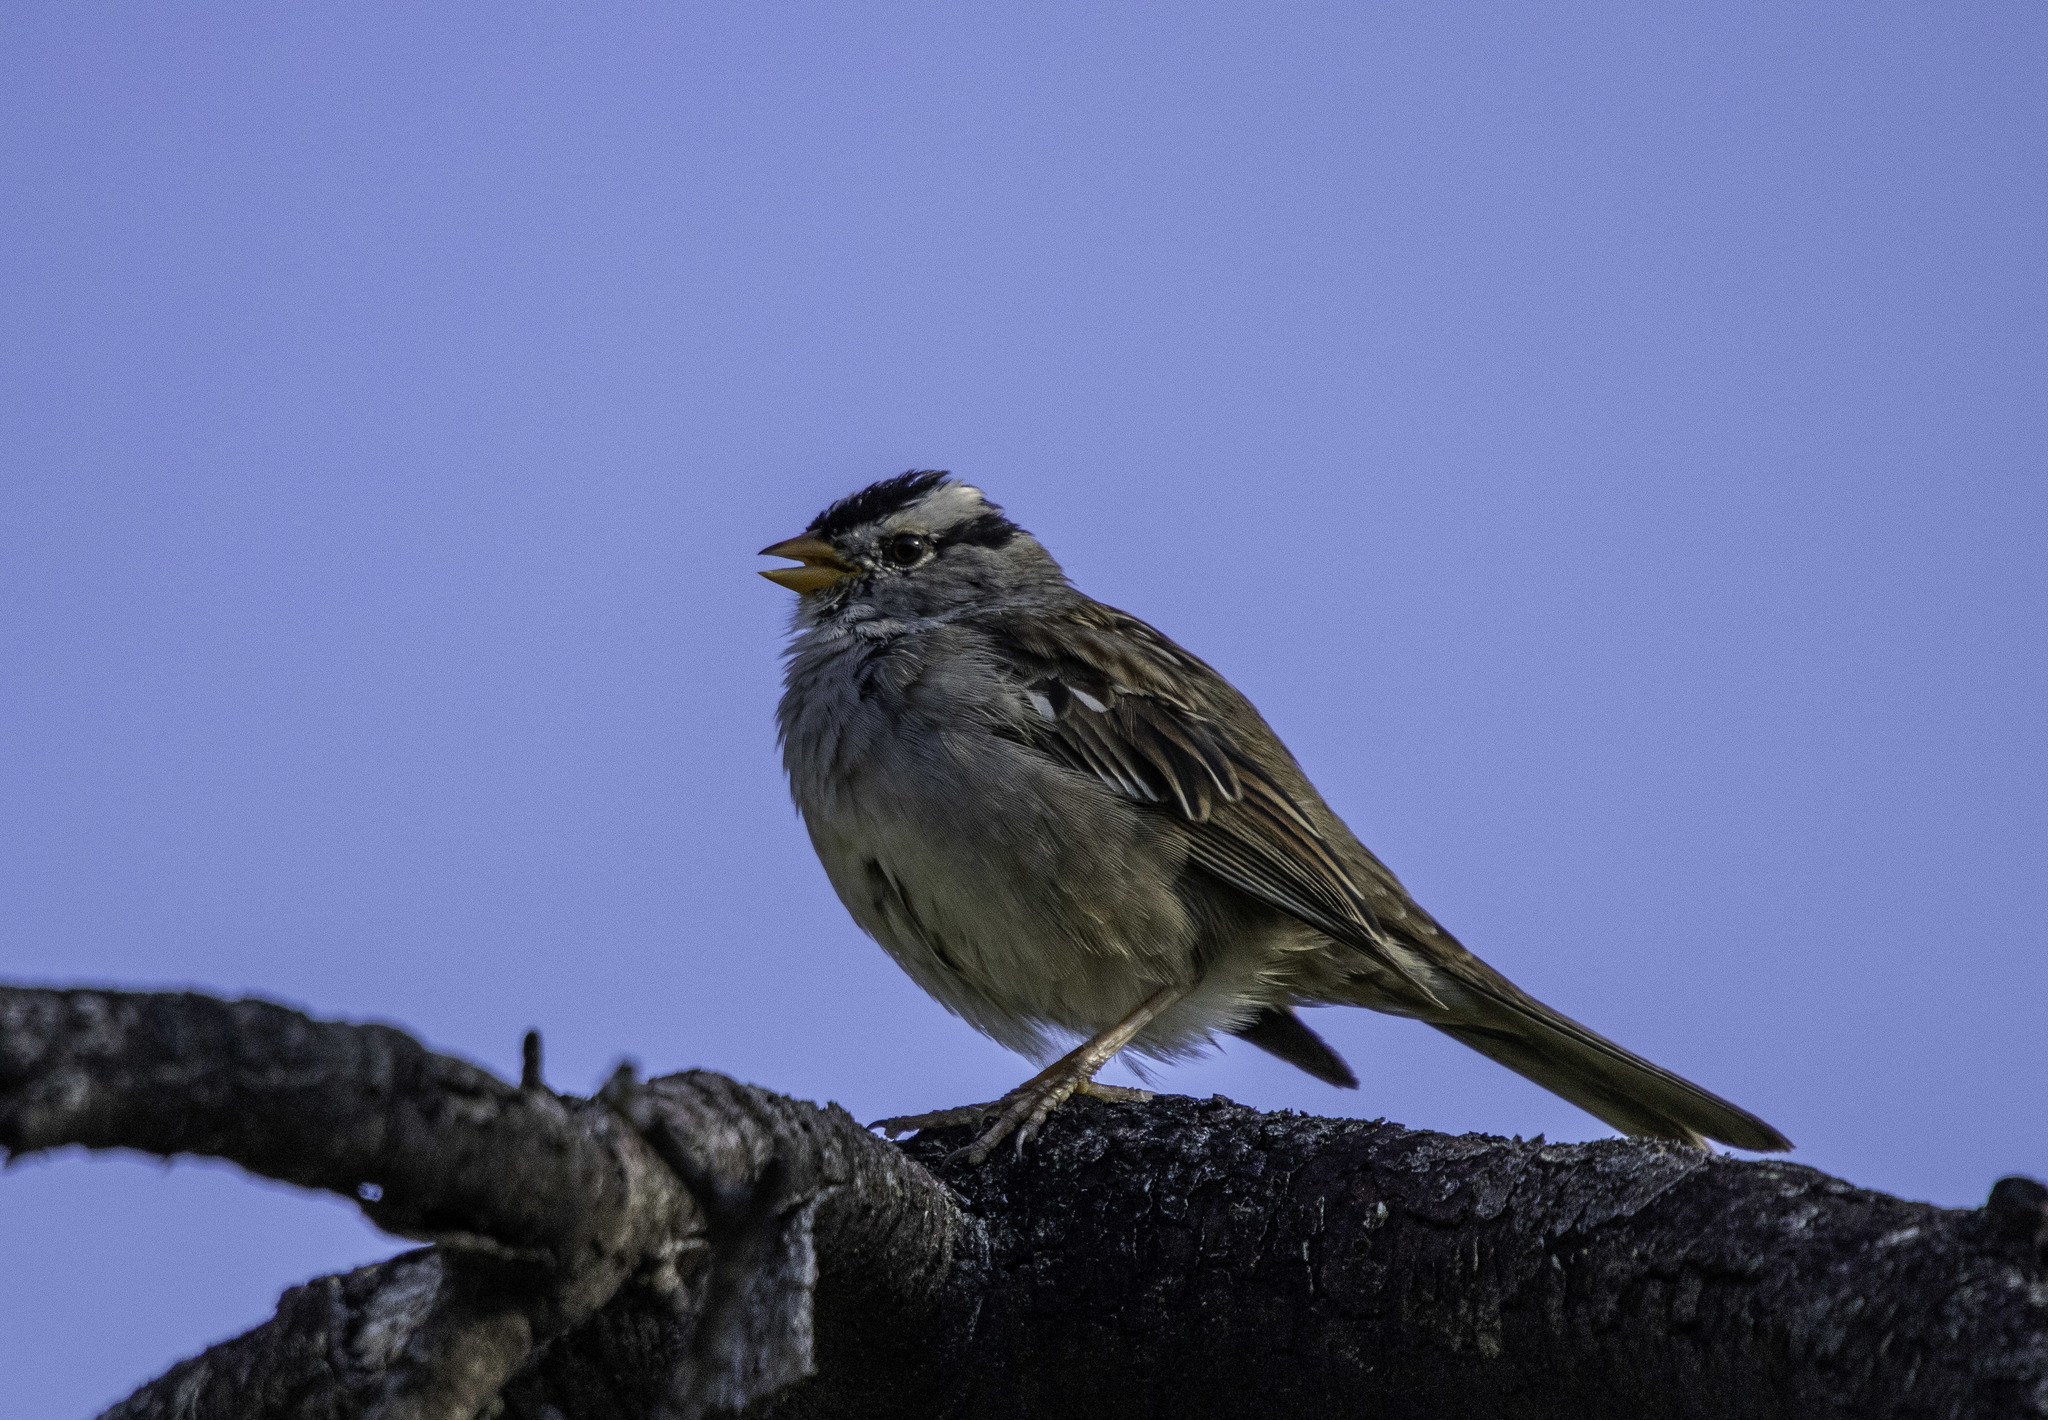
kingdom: Animalia
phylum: Chordata
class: Aves
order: Passeriformes
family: Passerellidae
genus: Zonotrichia
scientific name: Zonotrichia leucophrys
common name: White-crowned sparrow
